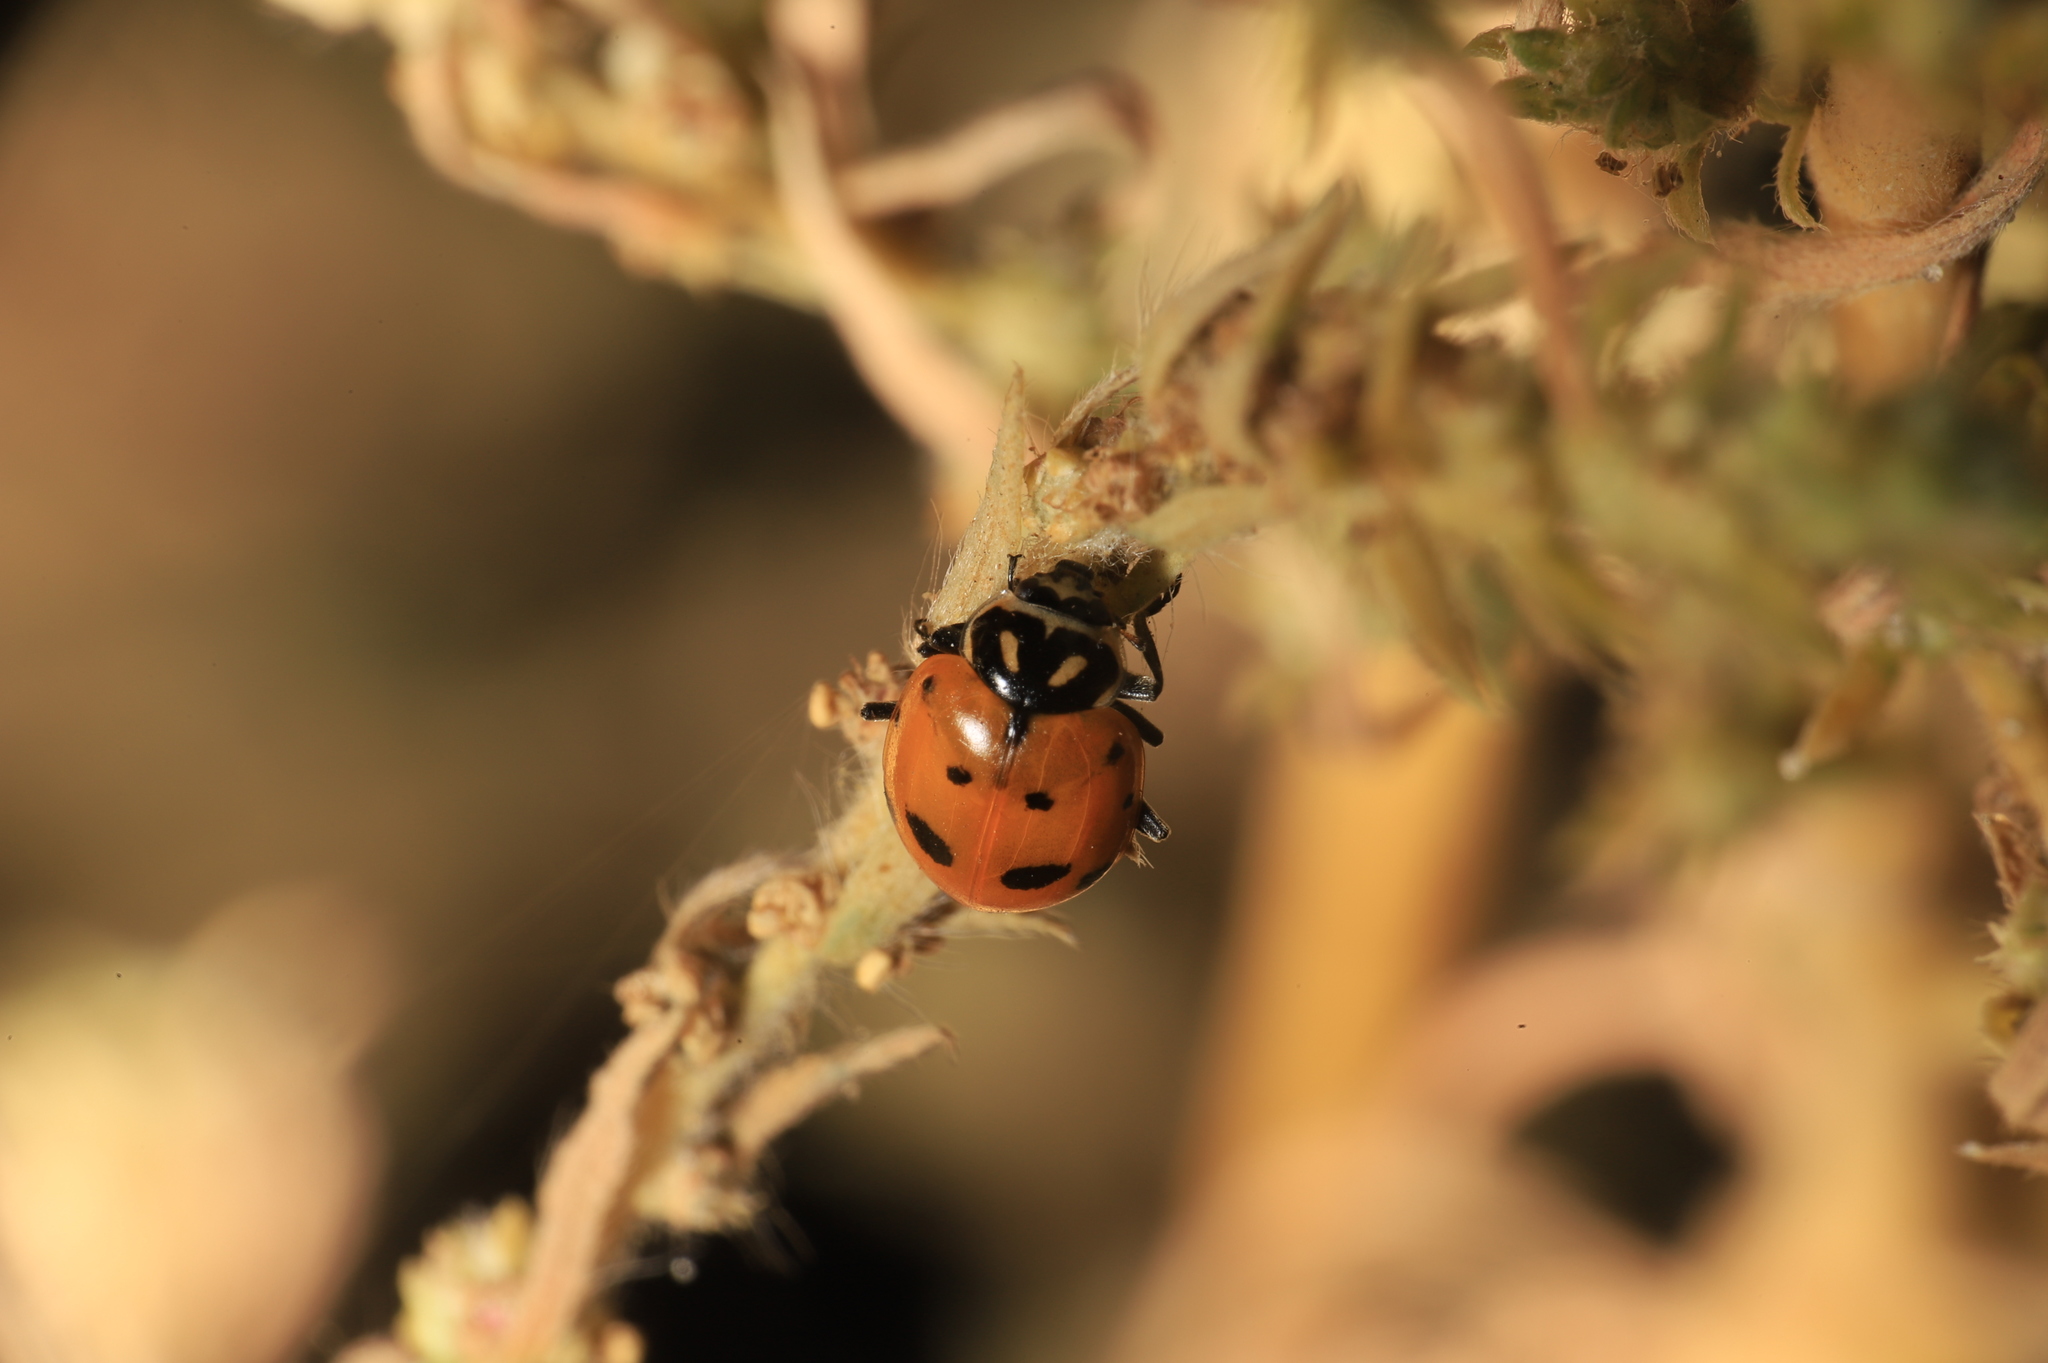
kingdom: Animalia
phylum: Arthropoda
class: Insecta
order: Coleoptera
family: Coccinellidae
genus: Hippodamia
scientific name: Hippodamia convergens
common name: Convergent lady beetle
